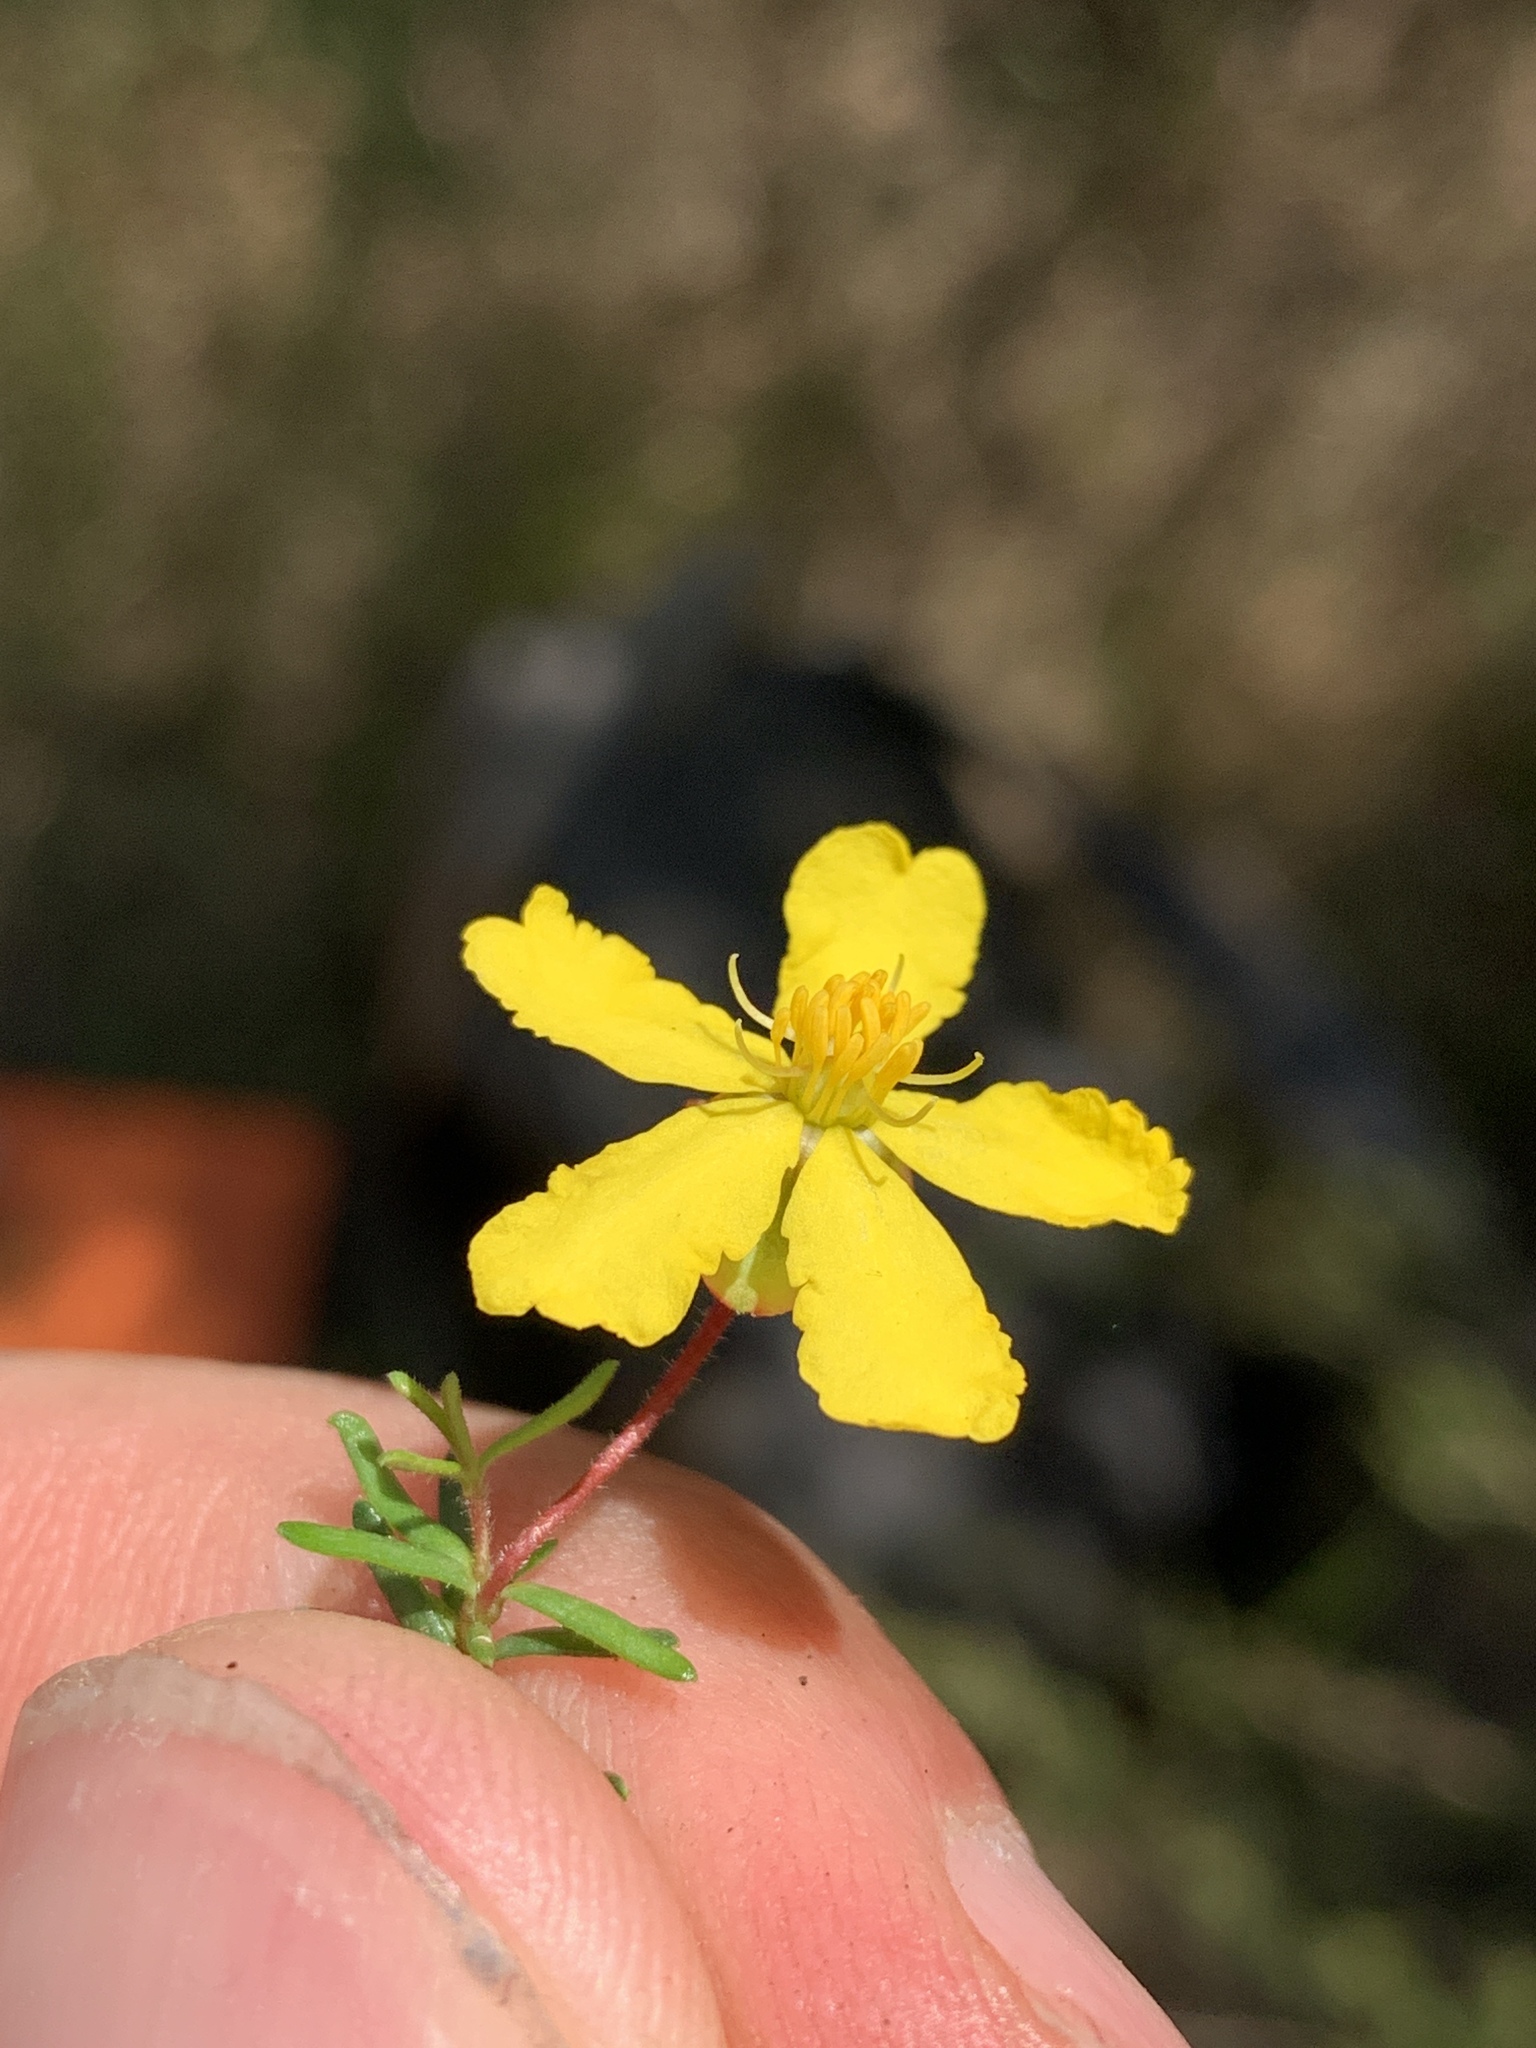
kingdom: Plantae
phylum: Tracheophyta
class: Magnoliopsida
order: Dilleniales
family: Dilleniaceae
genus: Hibbertia
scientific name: Hibbertia pedunculata
